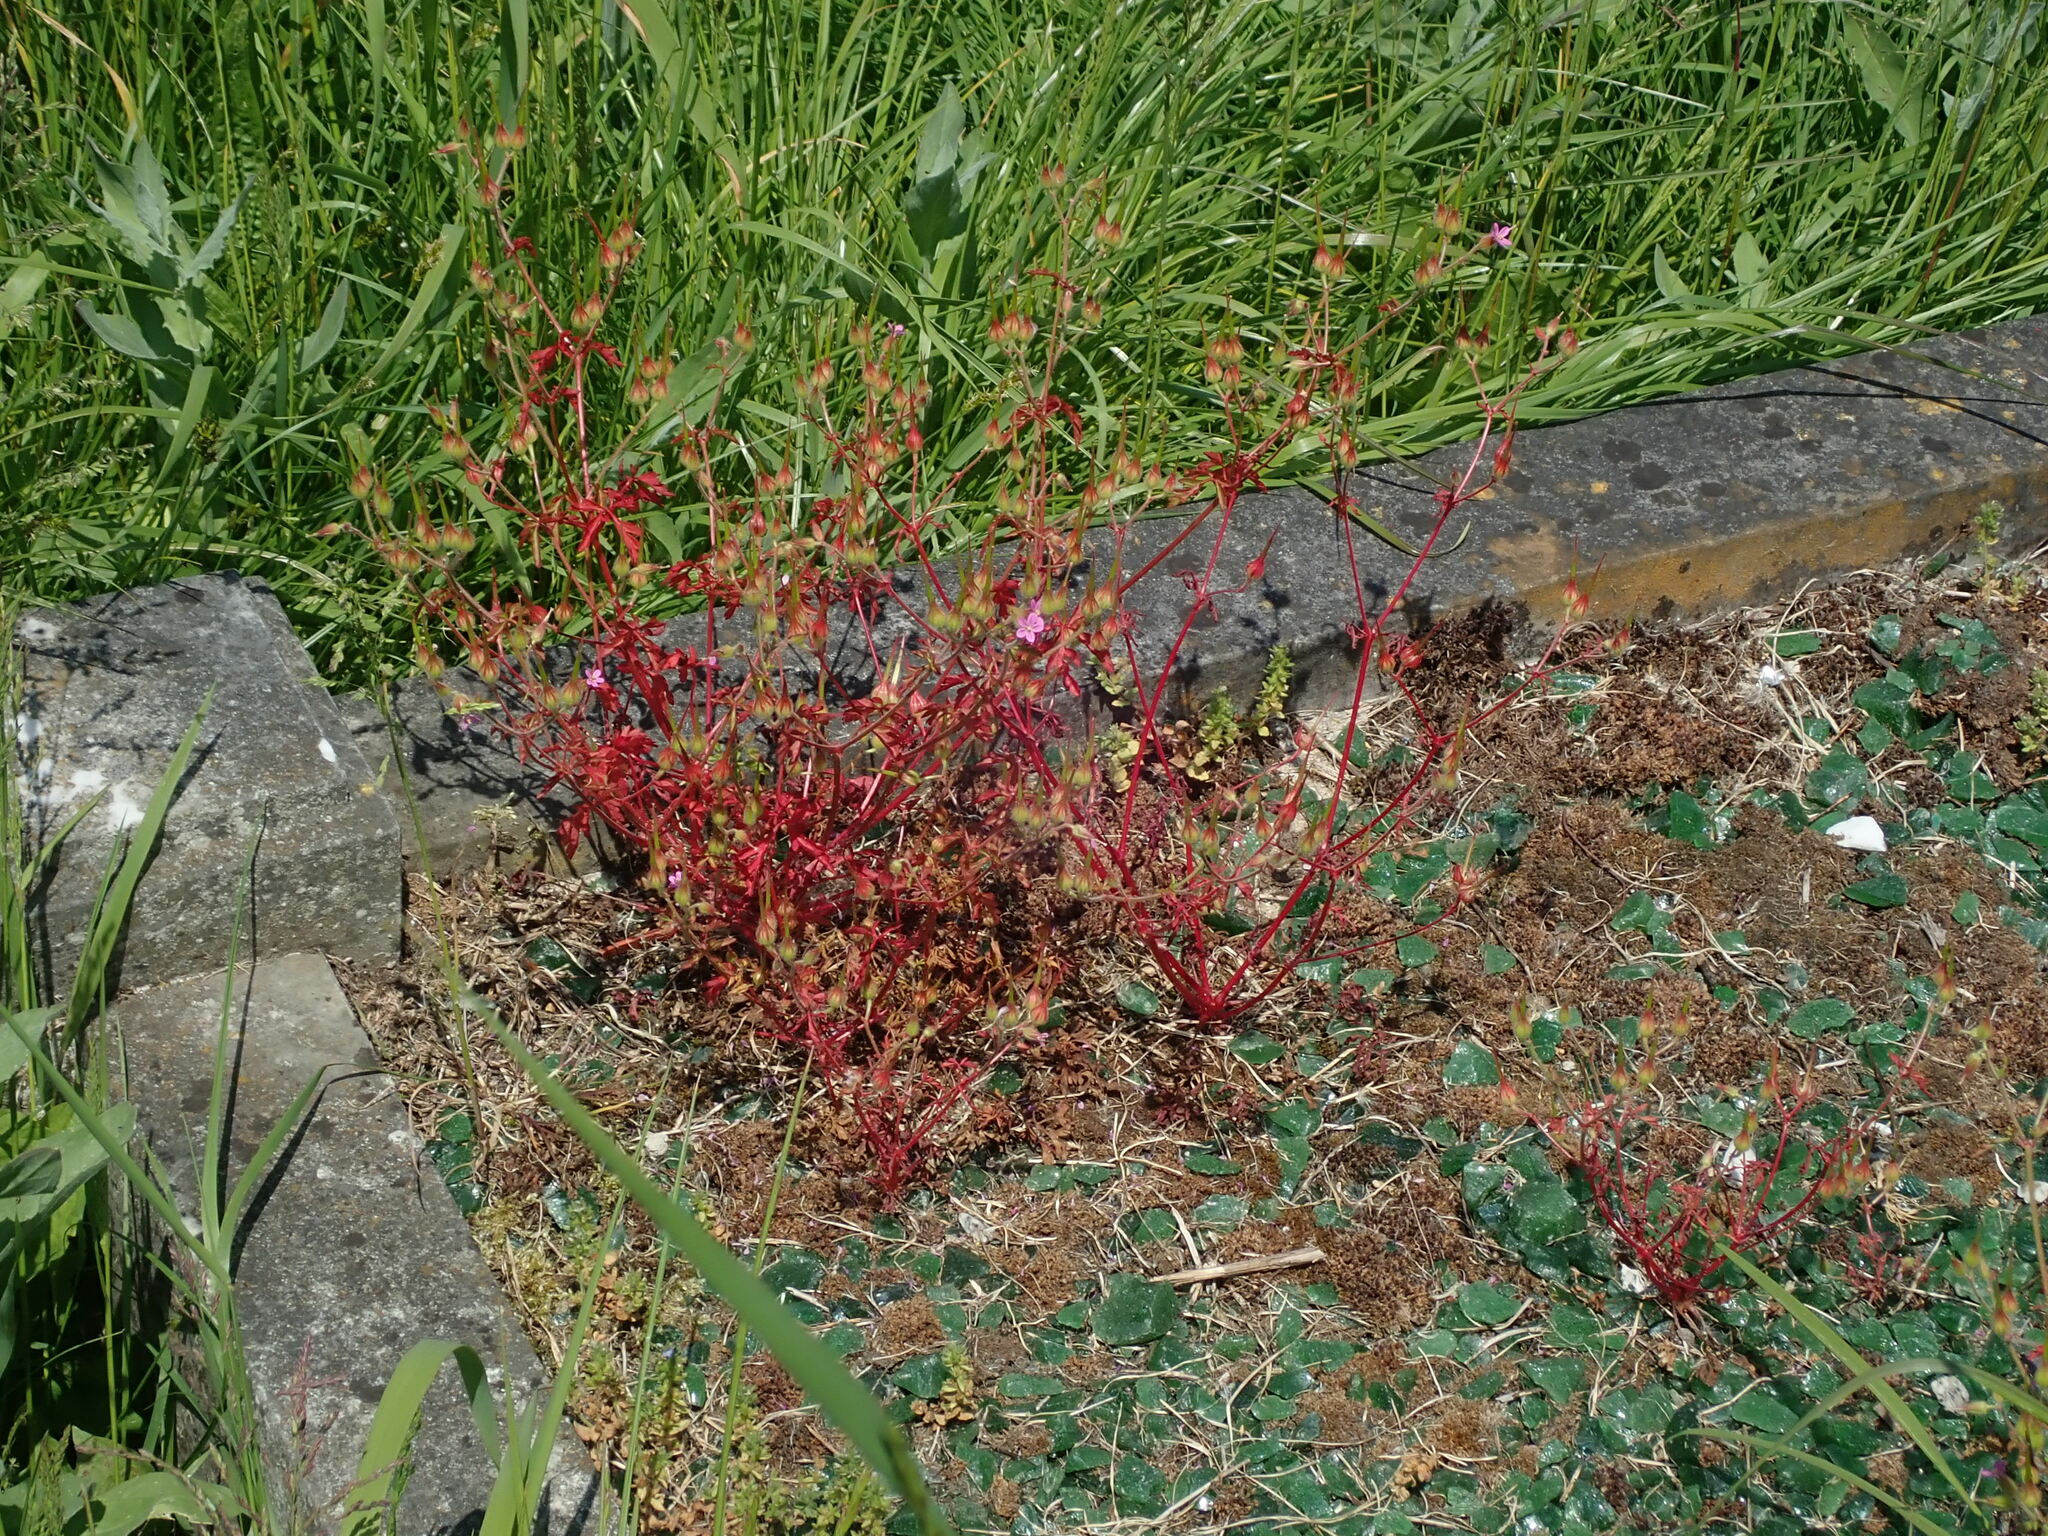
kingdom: Plantae
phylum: Tracheophyta
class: Magnoliopsida
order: Geraniales
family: Geraniaceae
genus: Geranium
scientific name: Geranium purpureum
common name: Little-robin
